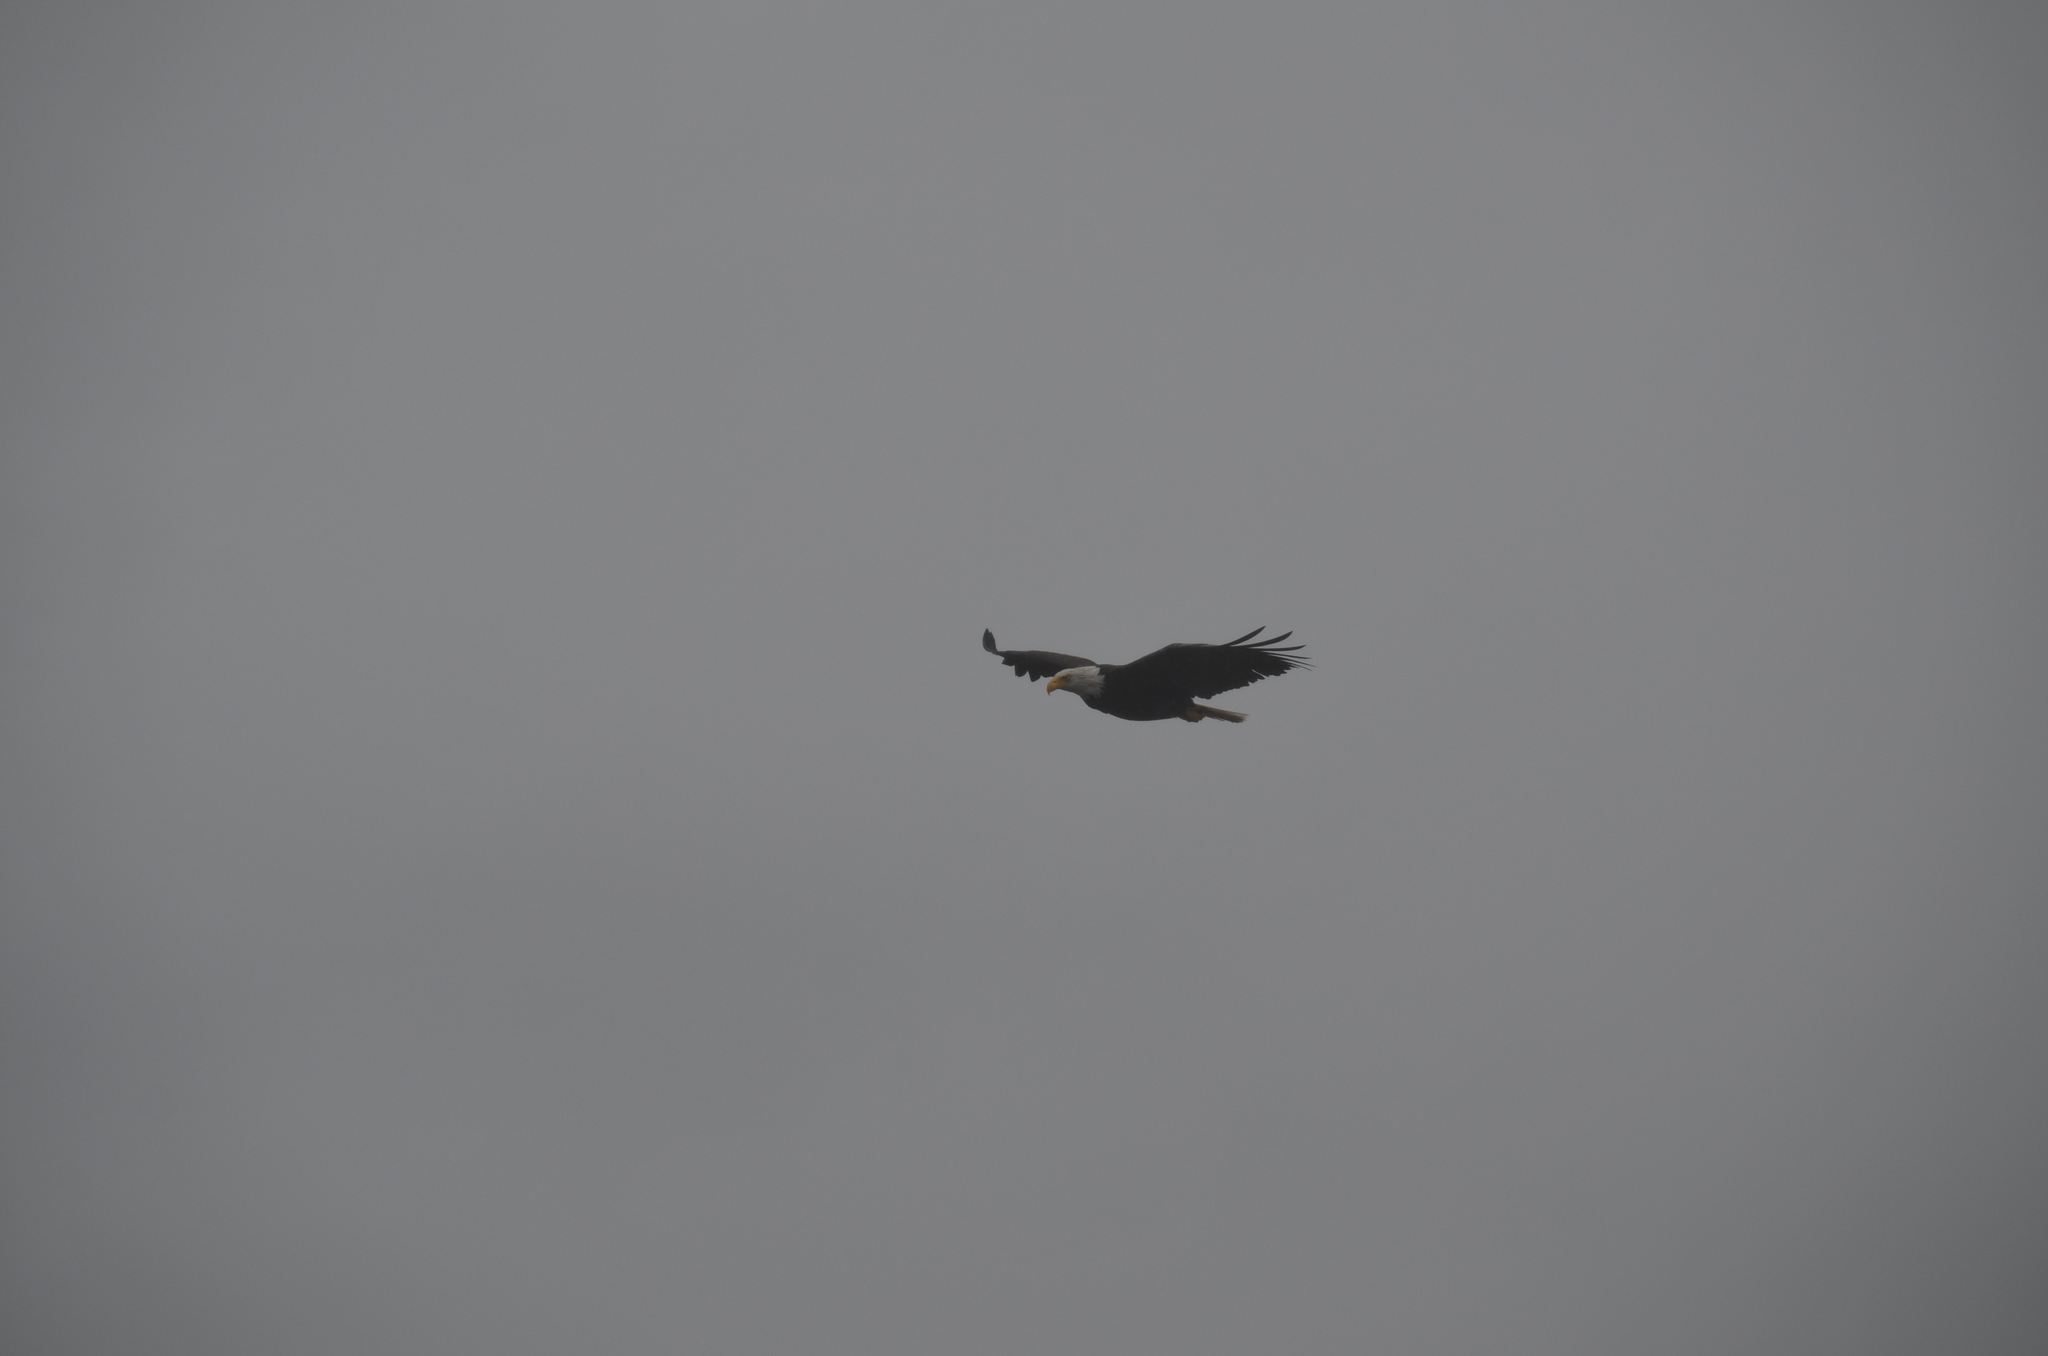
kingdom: Animalia
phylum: Chordata
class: Aves
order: Accipitriformes
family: Accipitridae
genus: Haliaeetus
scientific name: Haliaeetus leucocephalus
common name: Bald eagle
